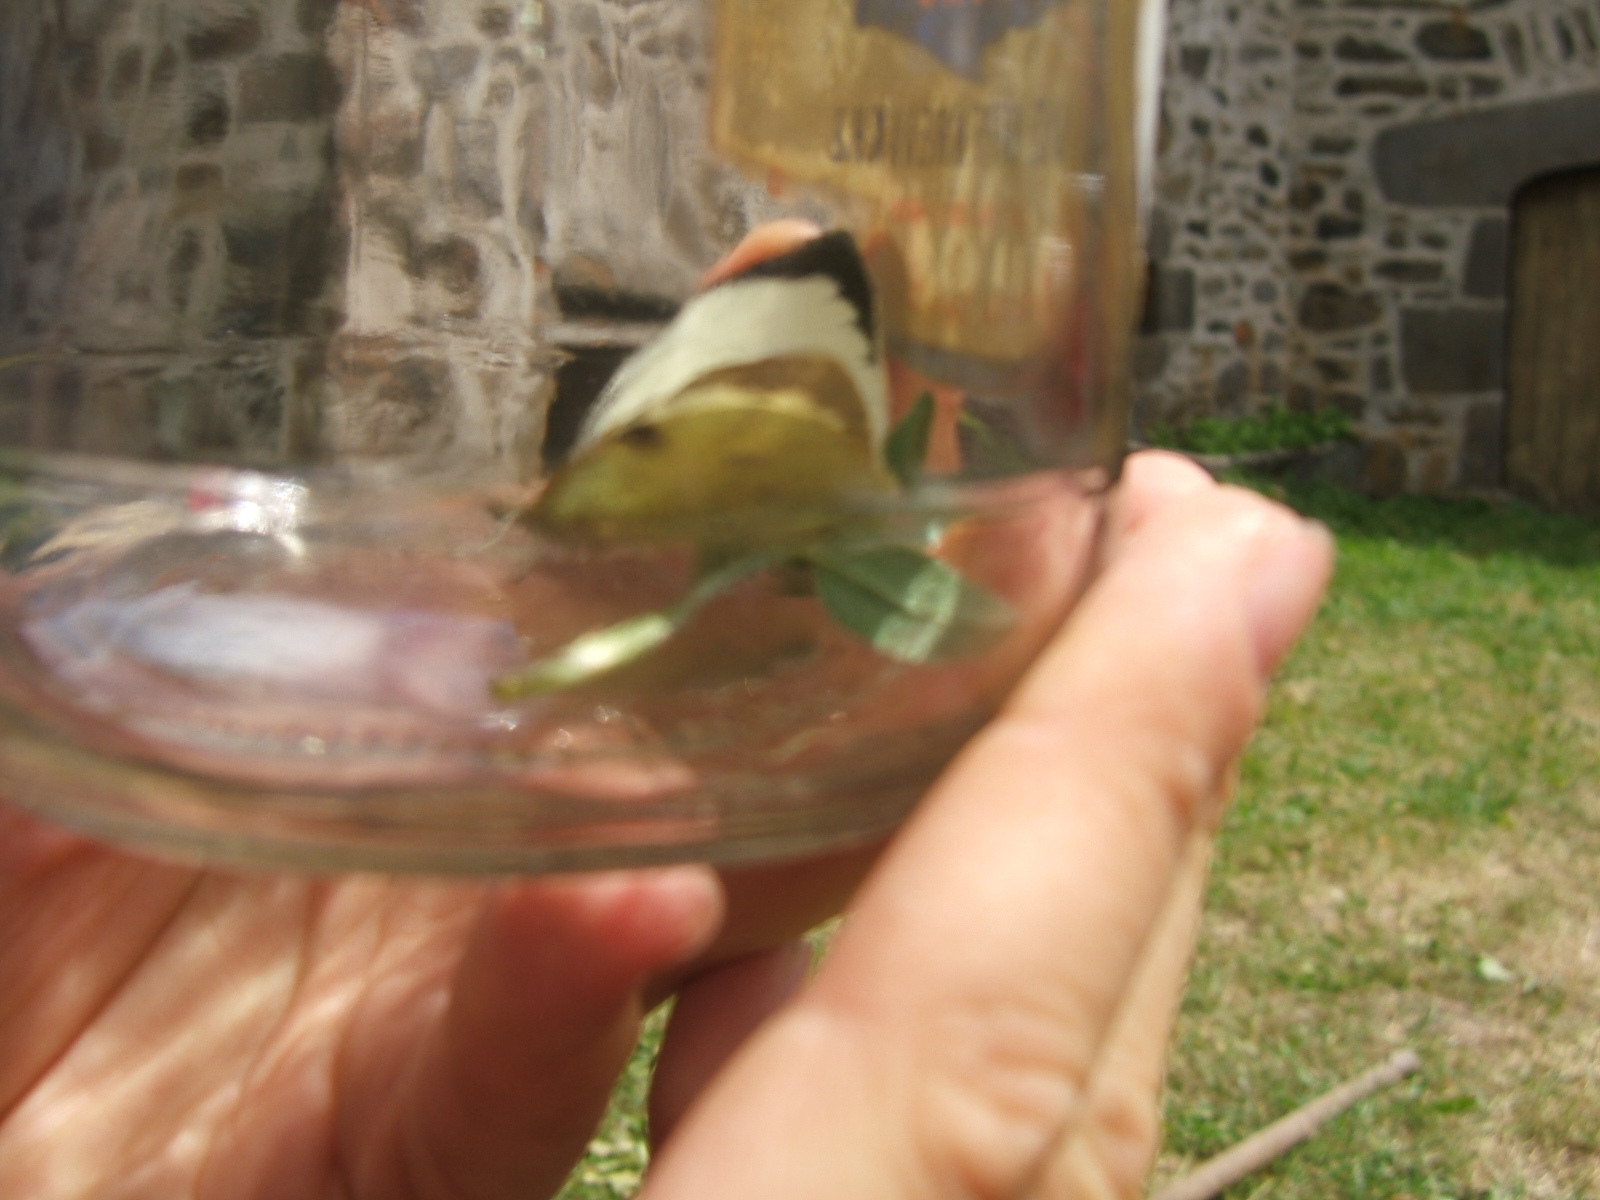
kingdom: Animalia
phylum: Arthropoda
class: Insecta
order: Lepidoptera
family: Pieridae
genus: Pieris
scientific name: Pieris brassicae
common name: Large white
